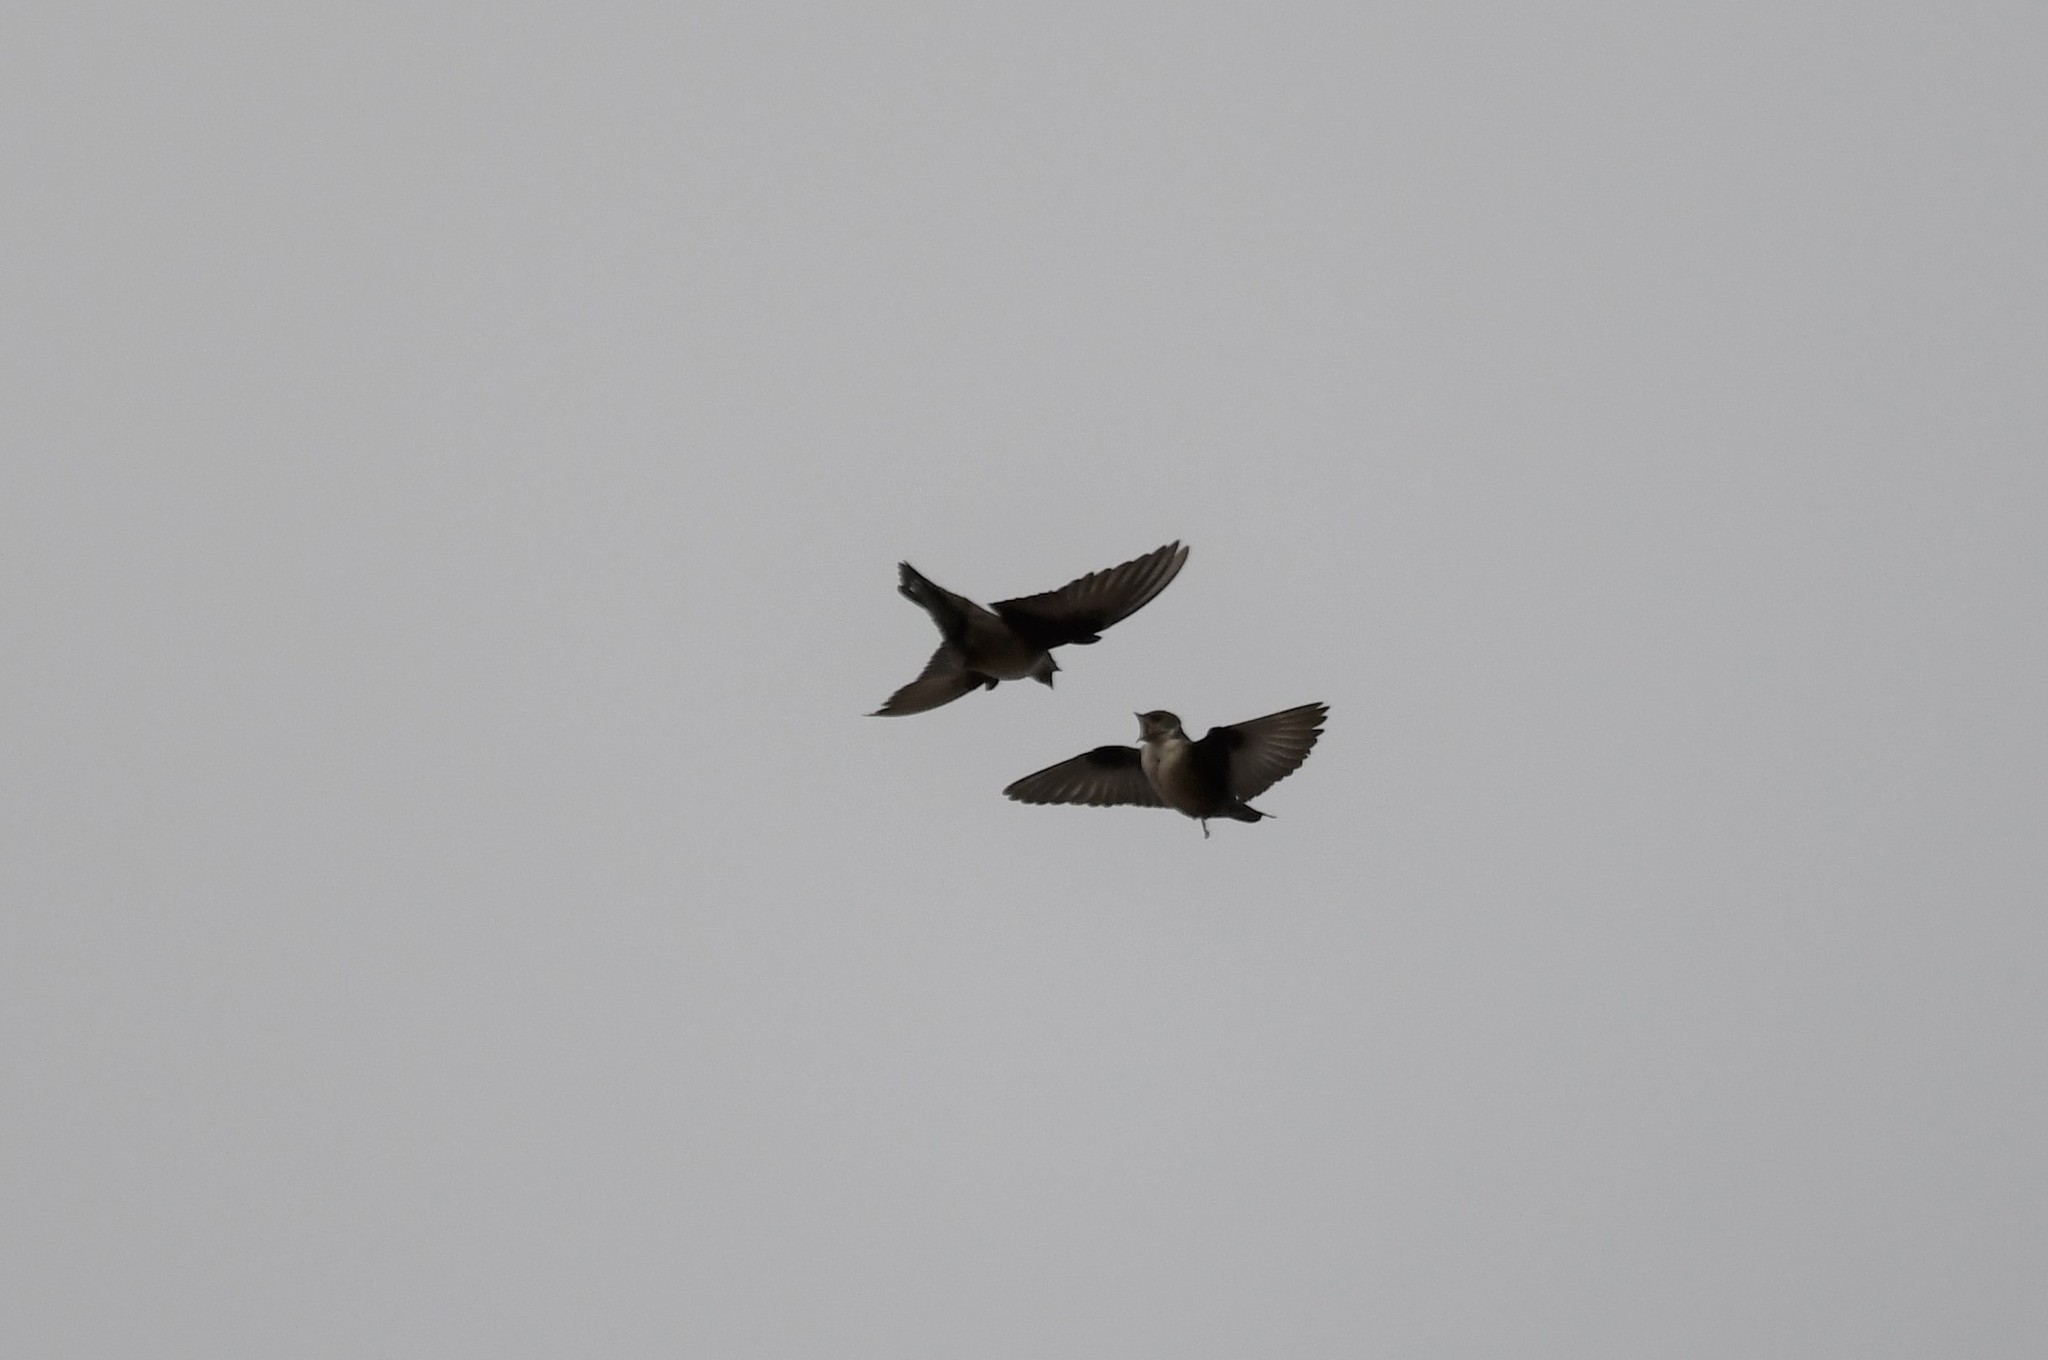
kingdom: Animalia
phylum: Chordata
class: Aves
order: Passeriformes
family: Hirundinidae
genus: Ptyonoprogne
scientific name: Ptyonoprogne rupestris
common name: Eurasian crag martin
